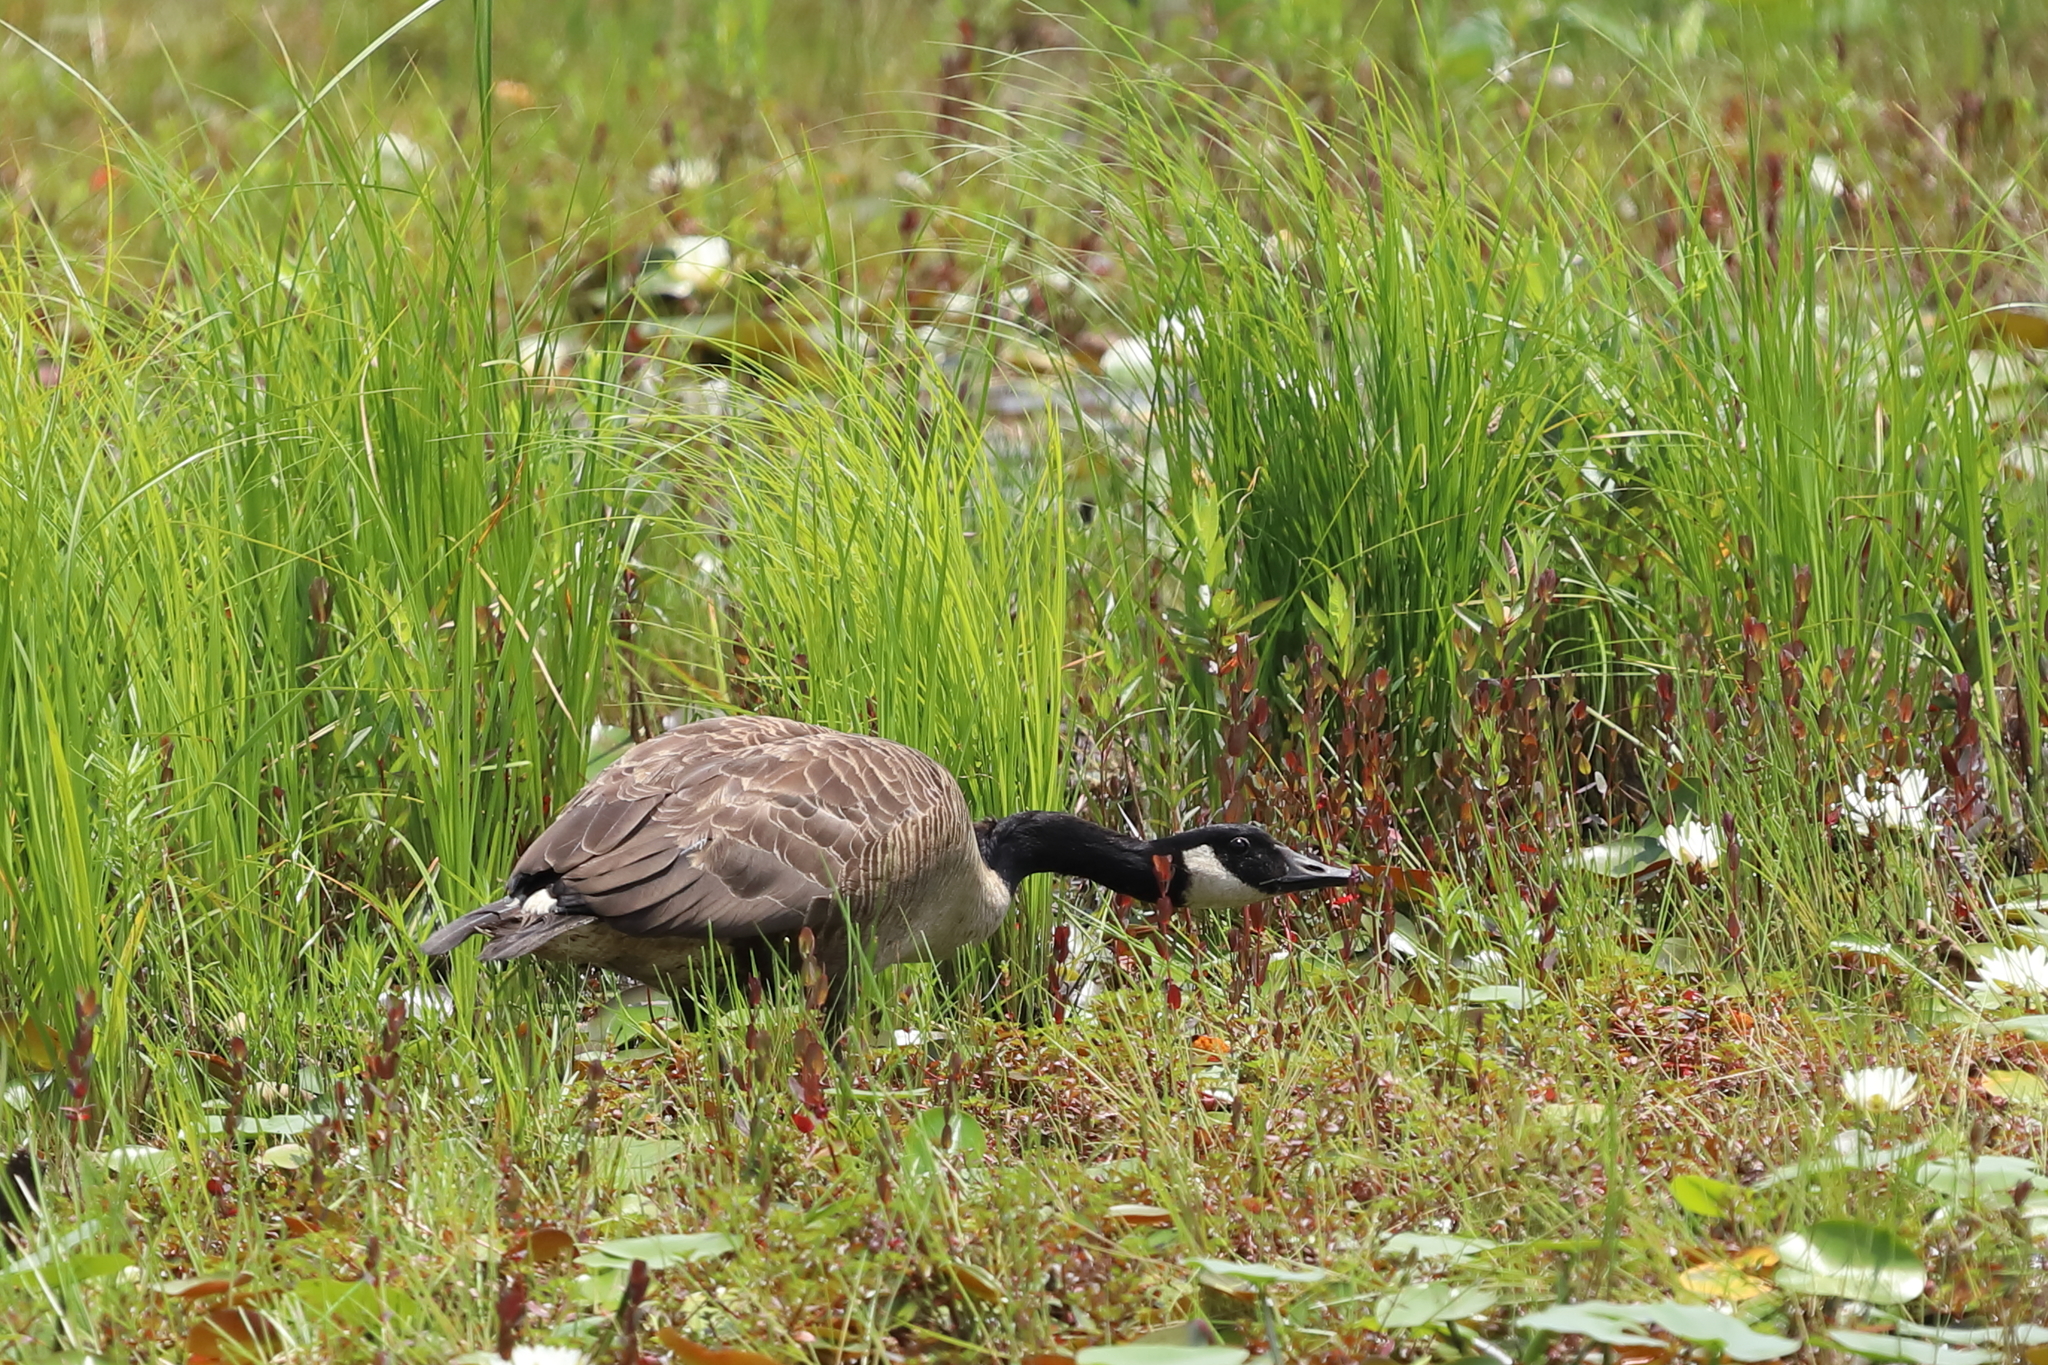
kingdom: Animalia
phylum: Chordata
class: Aves
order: Anseriformes
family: Anatidae
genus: Branta
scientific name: Branta canadensis
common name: Canada goose
